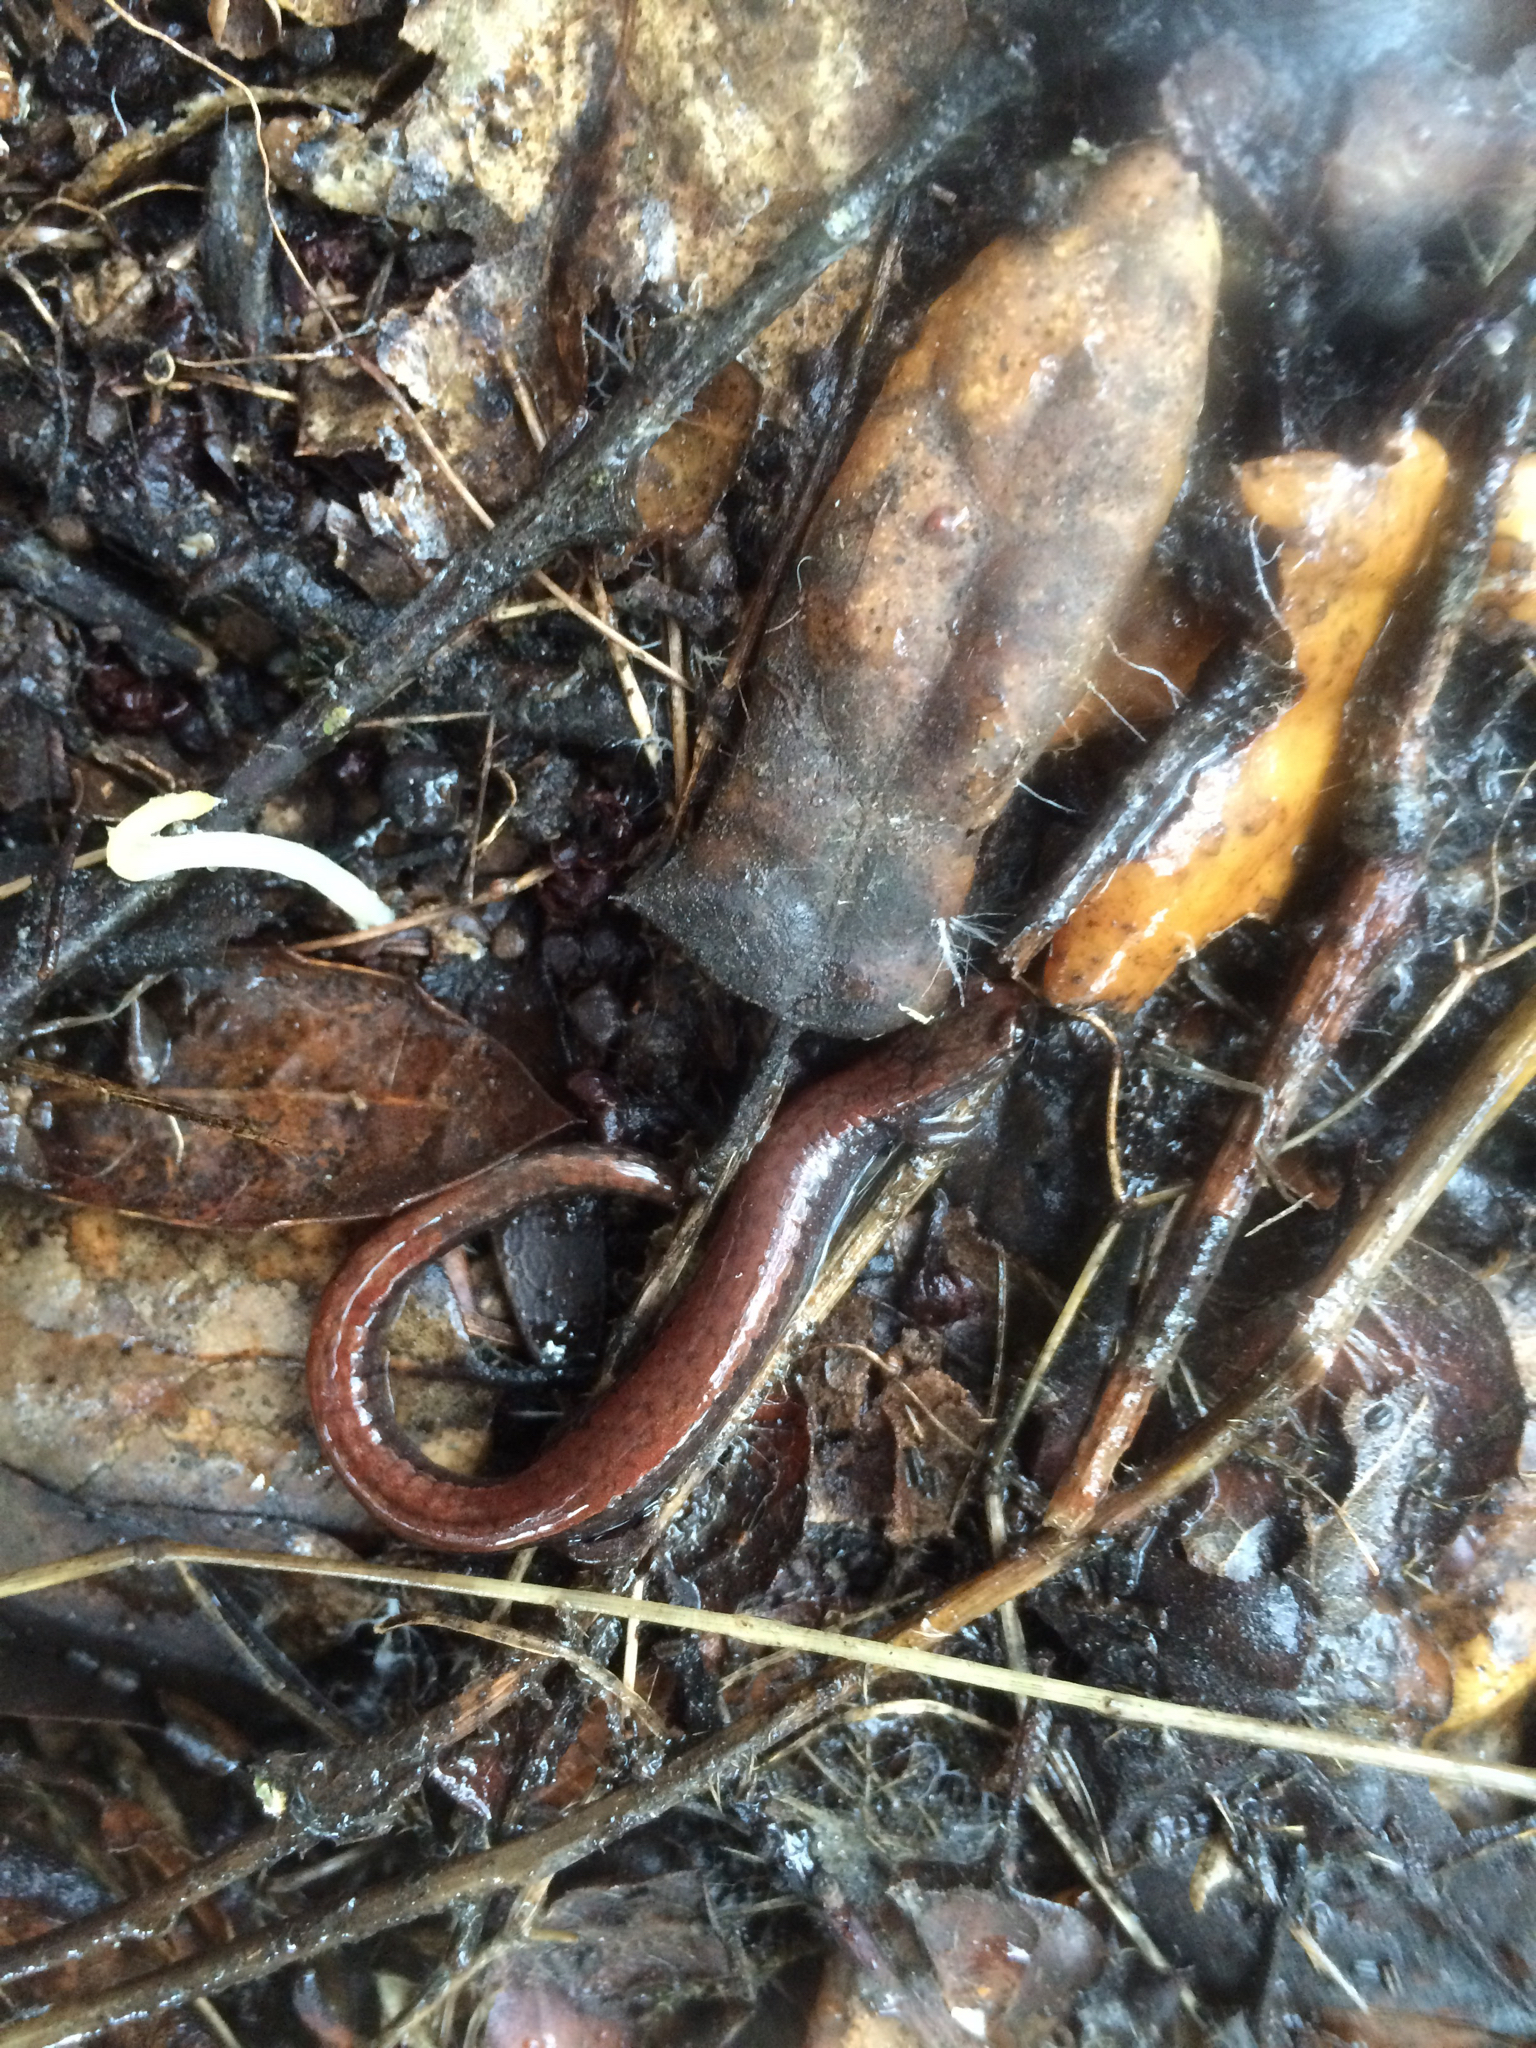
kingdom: Animalia
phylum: Chordata
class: Amphibia
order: Caudata
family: Plethodontidae
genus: Batrachoseps
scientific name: Batrachoseps attenuatus
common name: California slender salamander
